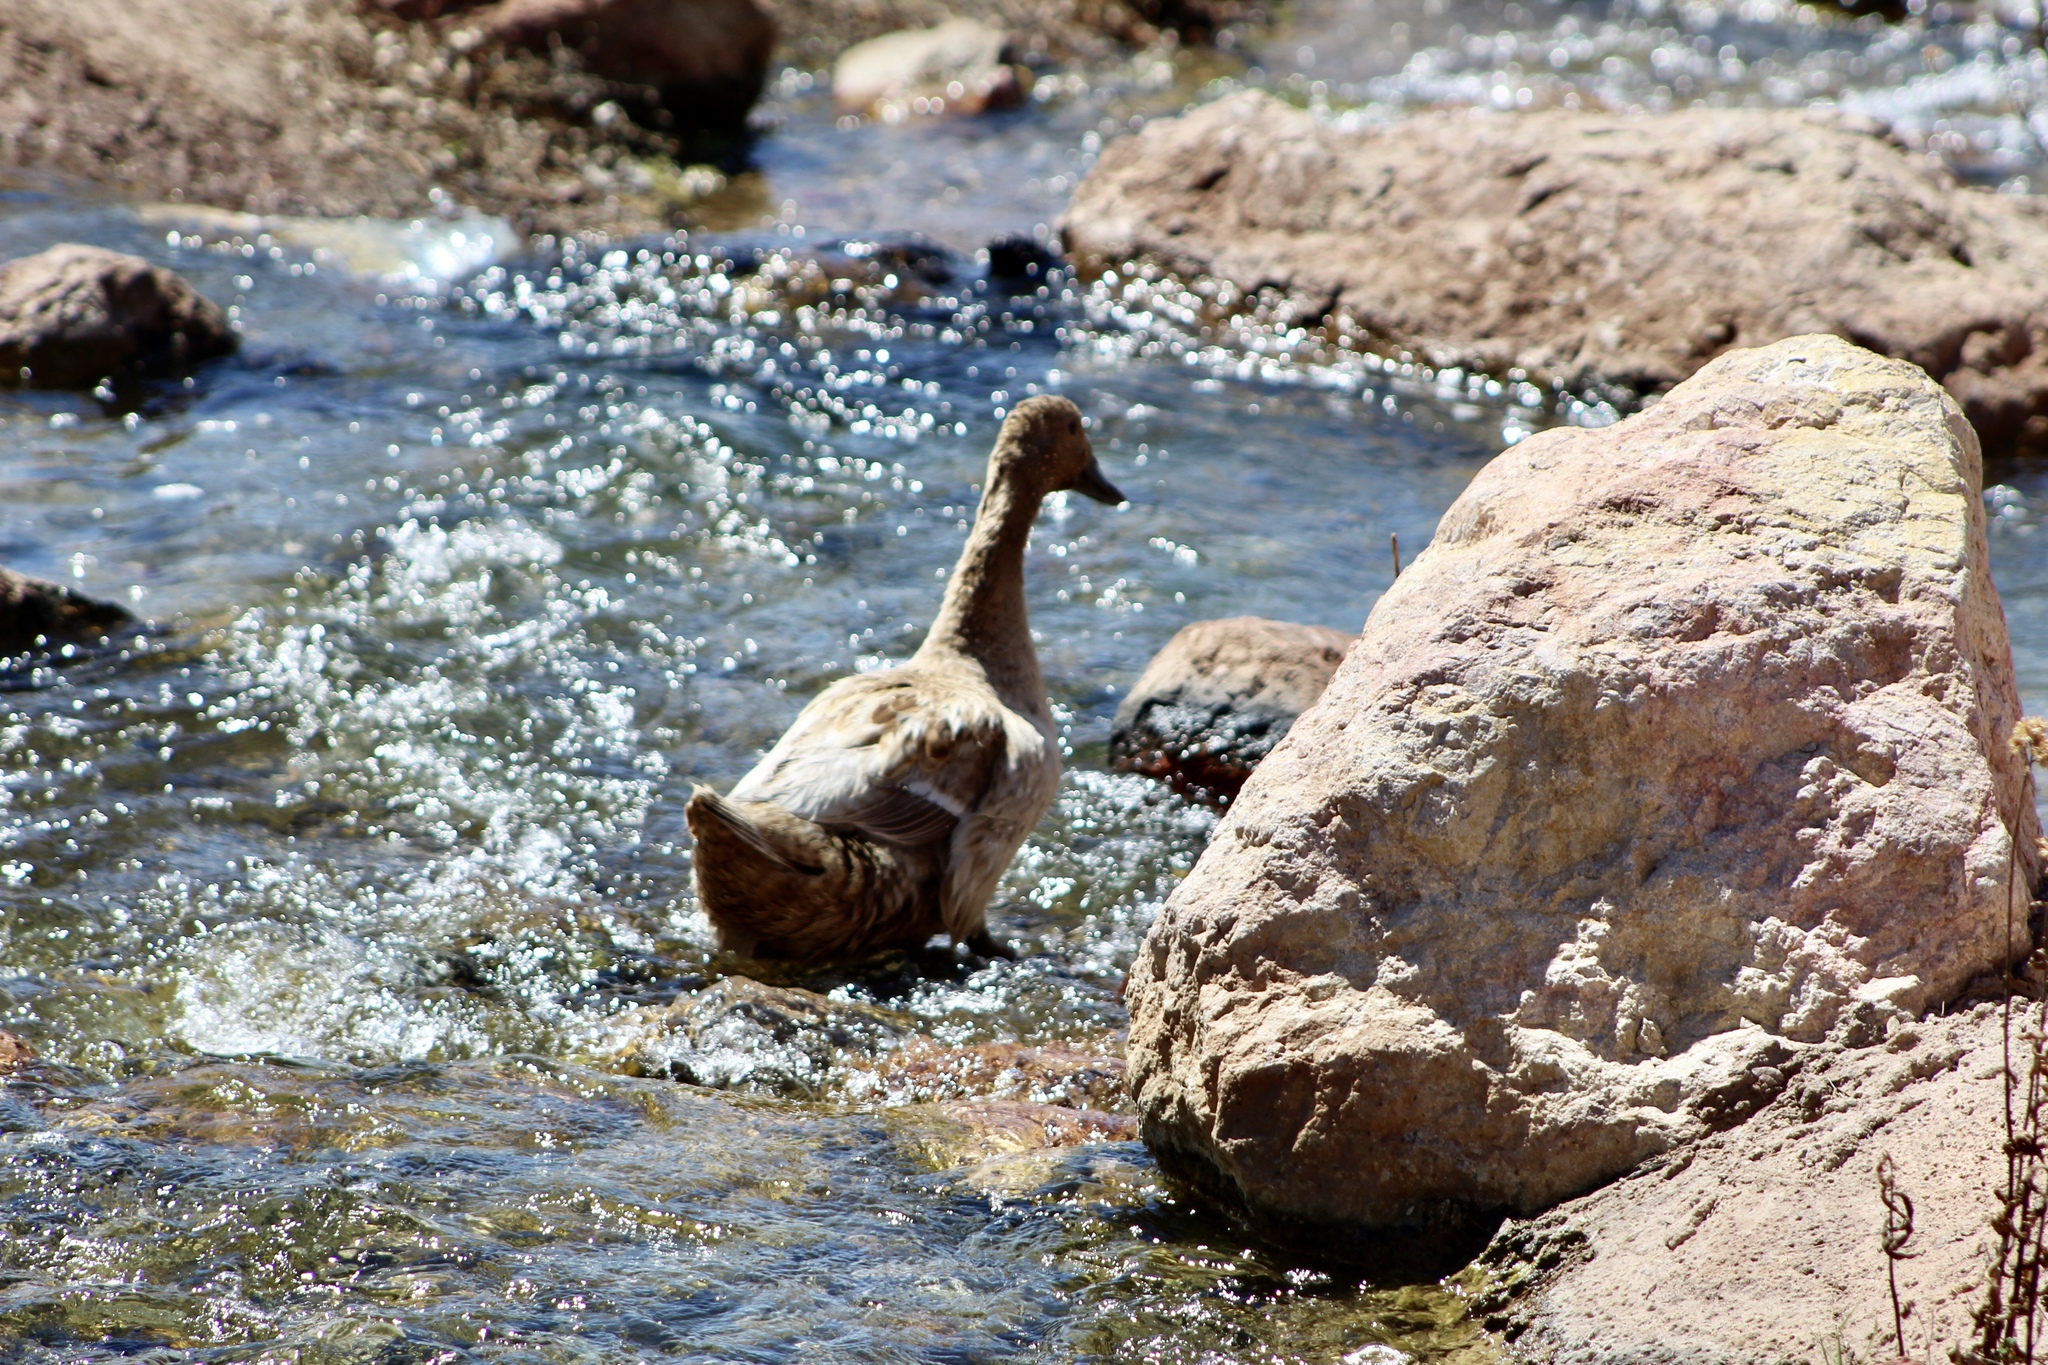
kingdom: Animalia
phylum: Chordata
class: Aves
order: Anseriformes
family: Anatidae
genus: Anas
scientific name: Anas platyrhynchos
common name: Mallard
